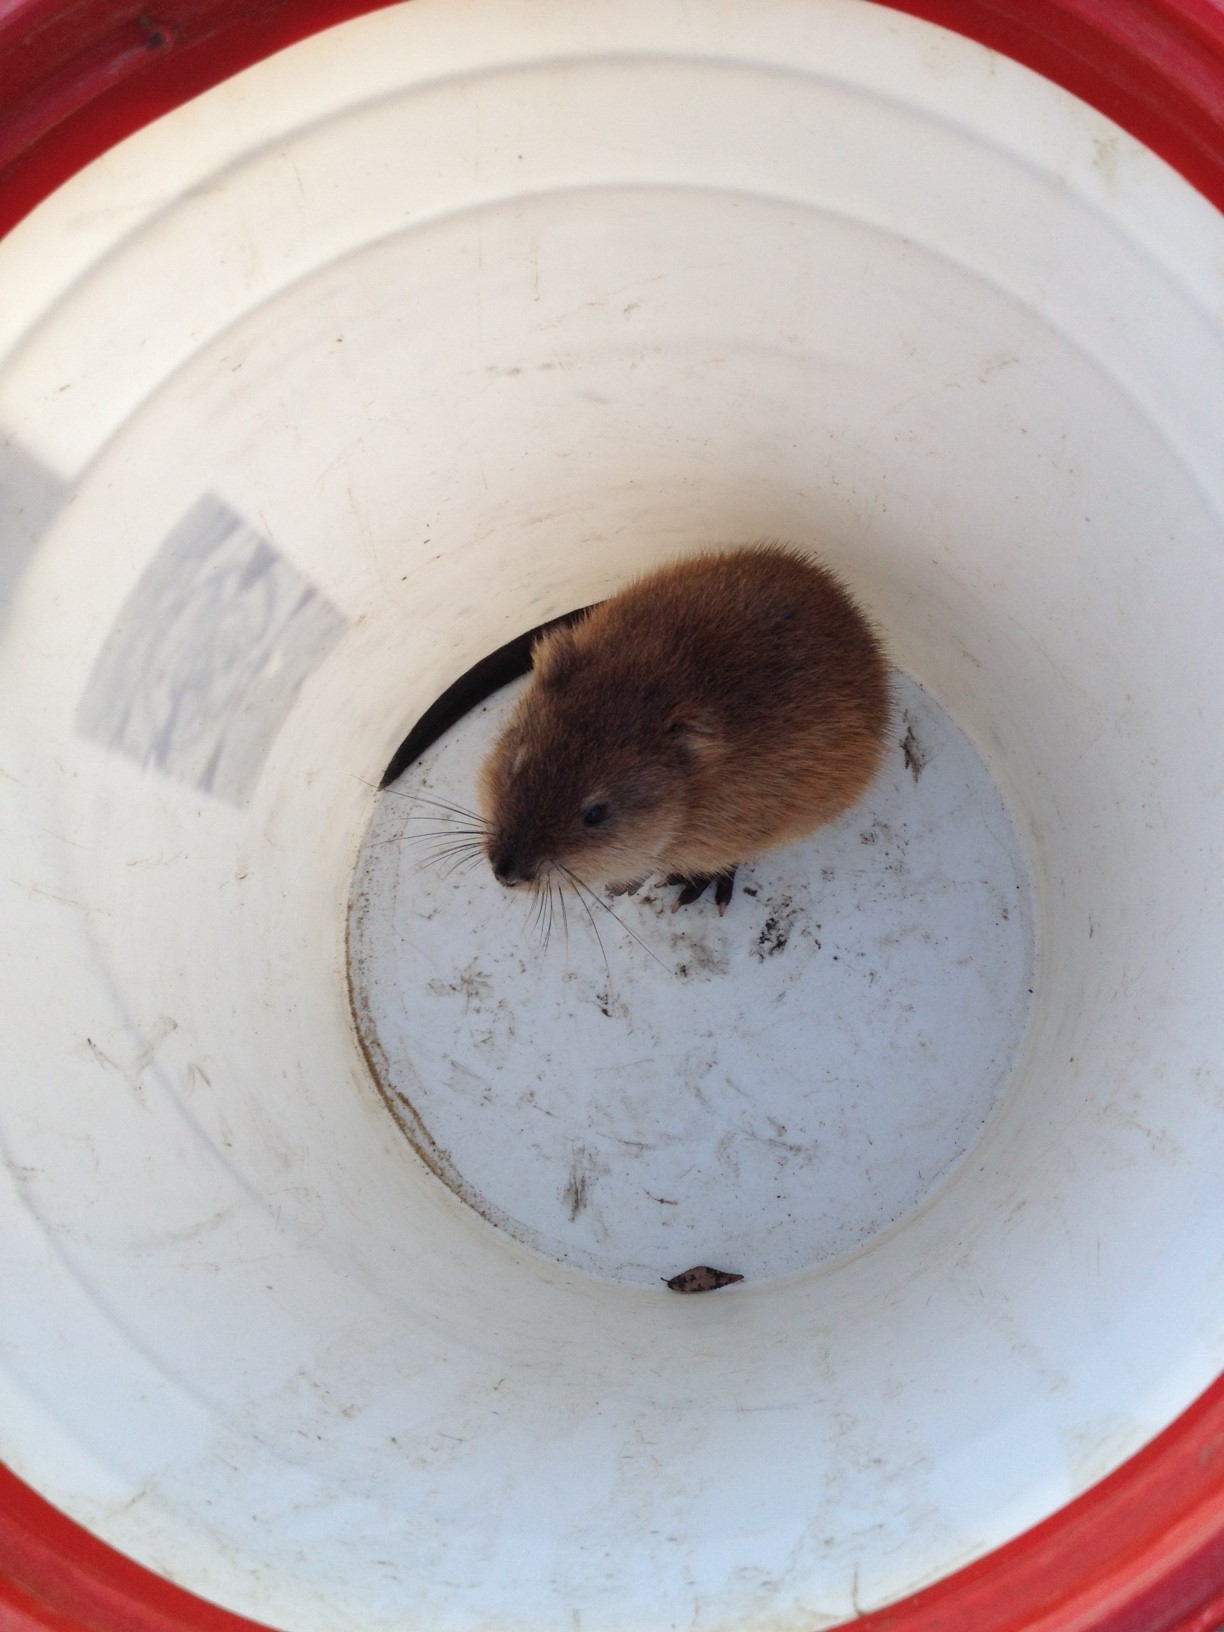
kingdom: Animalia
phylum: Chordata
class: Mammalia
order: Rodentia
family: Cricetidae
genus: Ondatra
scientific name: Ondatra zibethicus
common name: Muskrat
